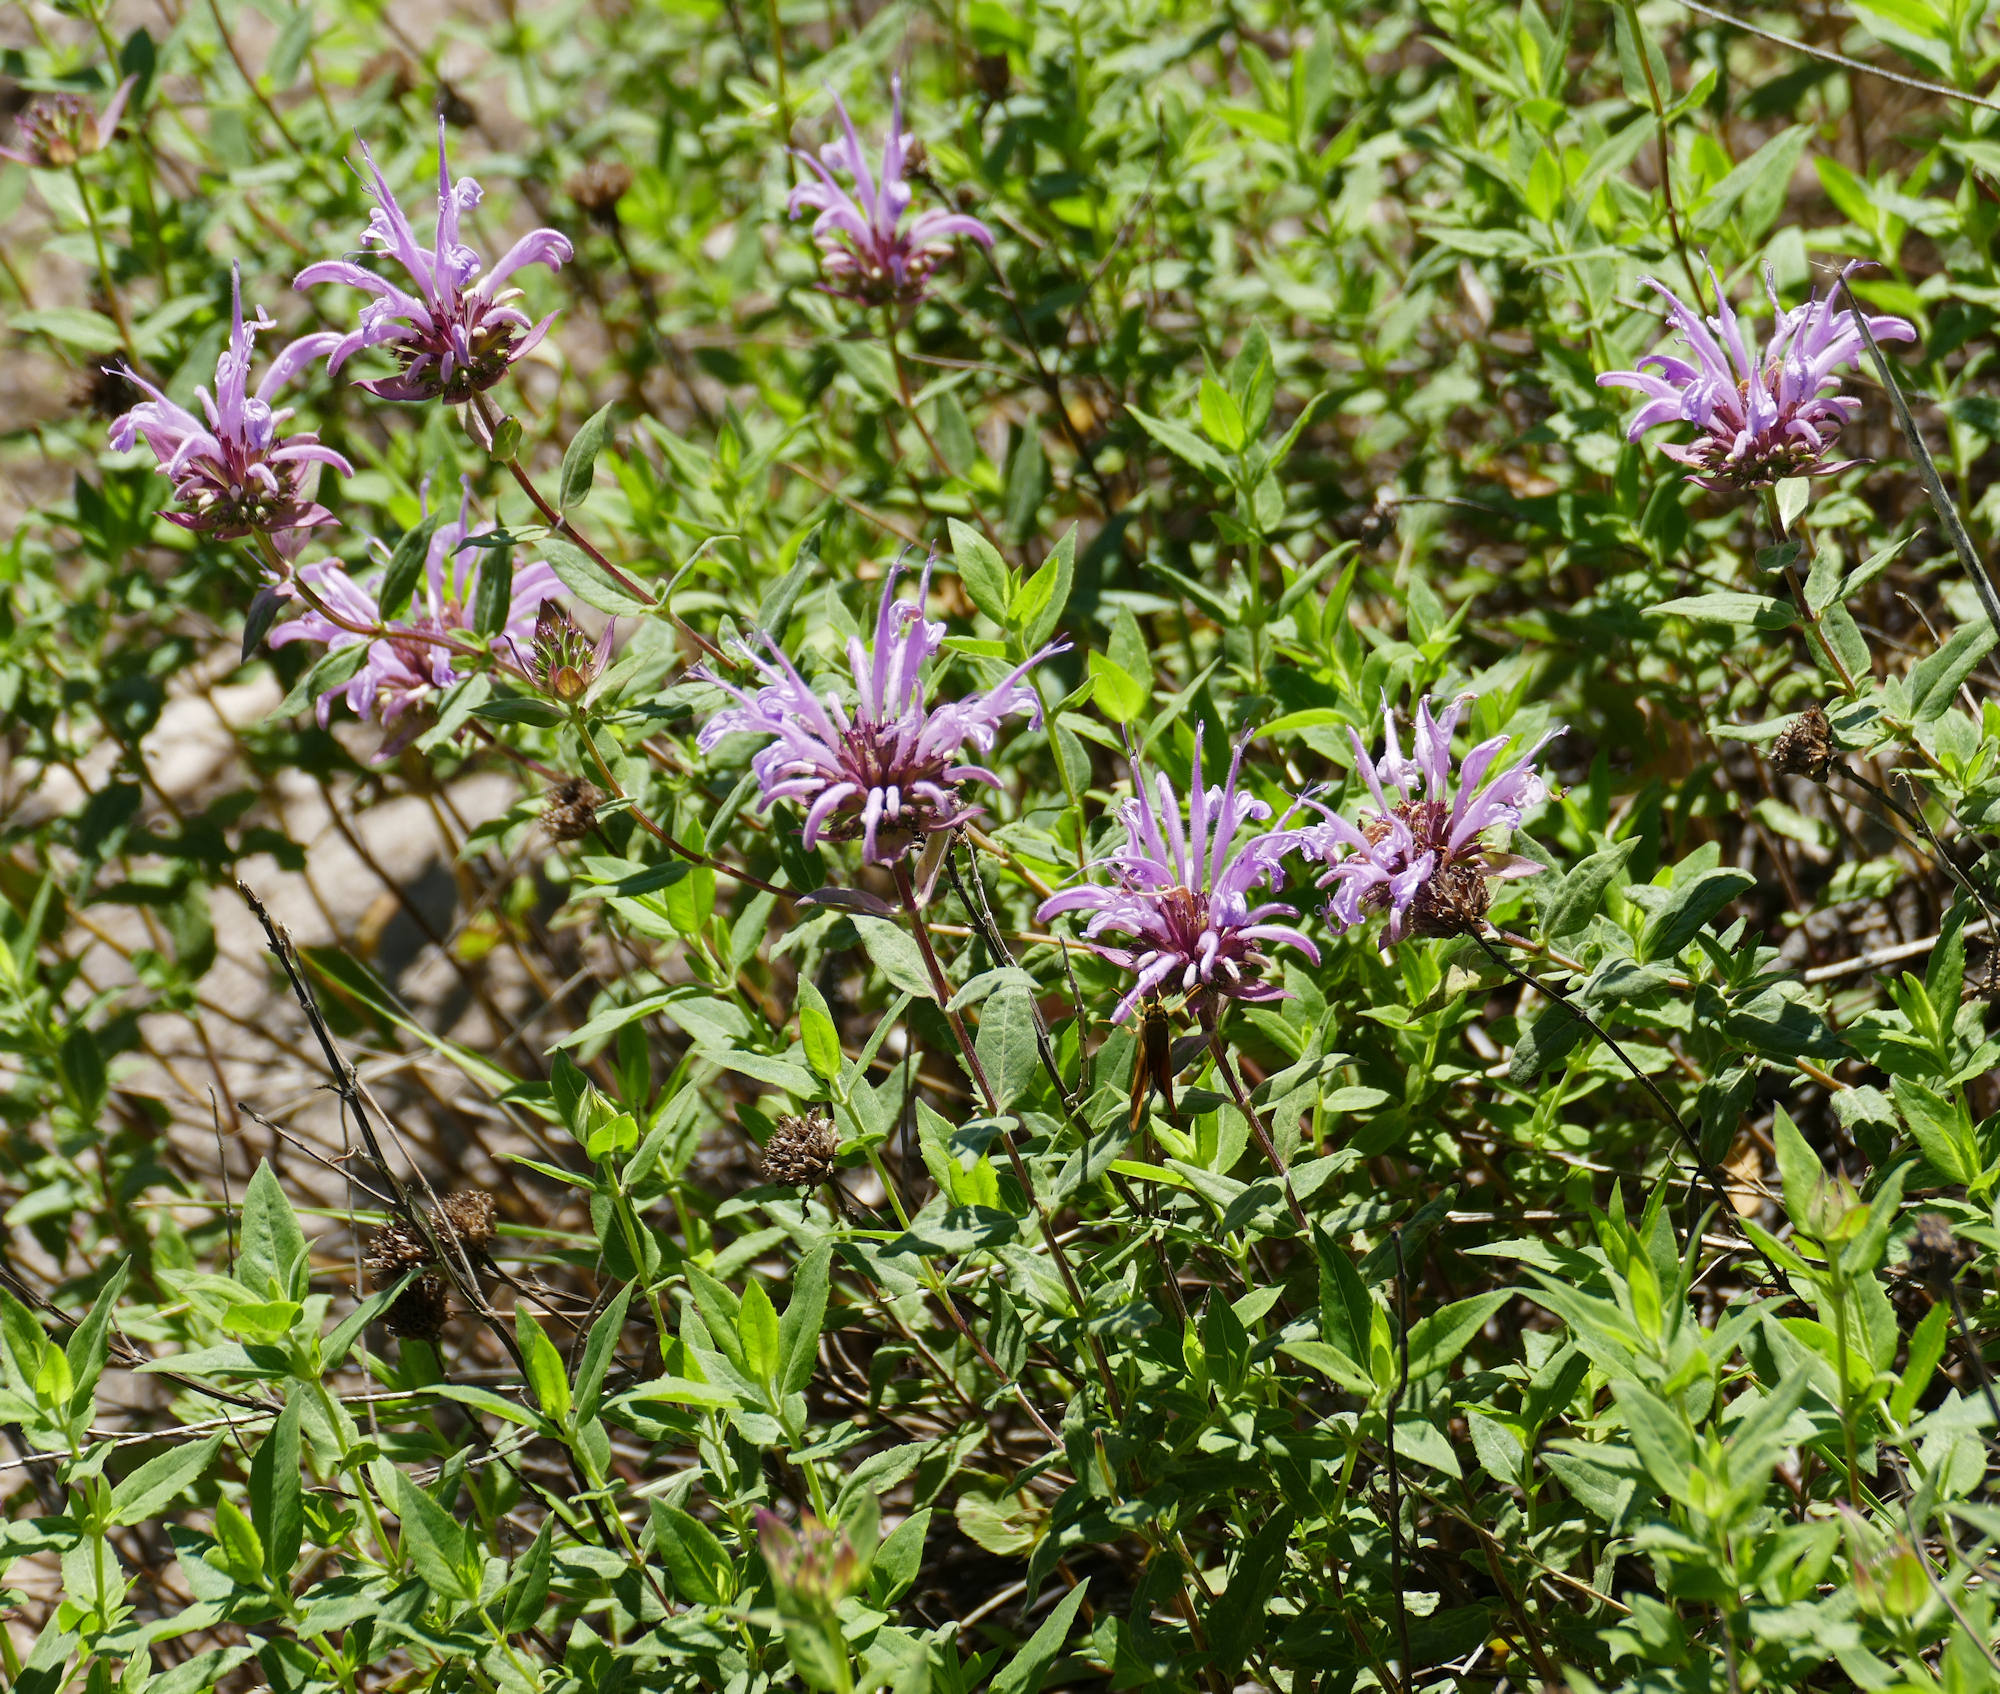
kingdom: Plantae
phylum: Tracheophyta
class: Magnoliopsida
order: Lamiales
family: Lamiaceae
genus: Monarda
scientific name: Monarda fistulosa
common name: Purple beebalm
